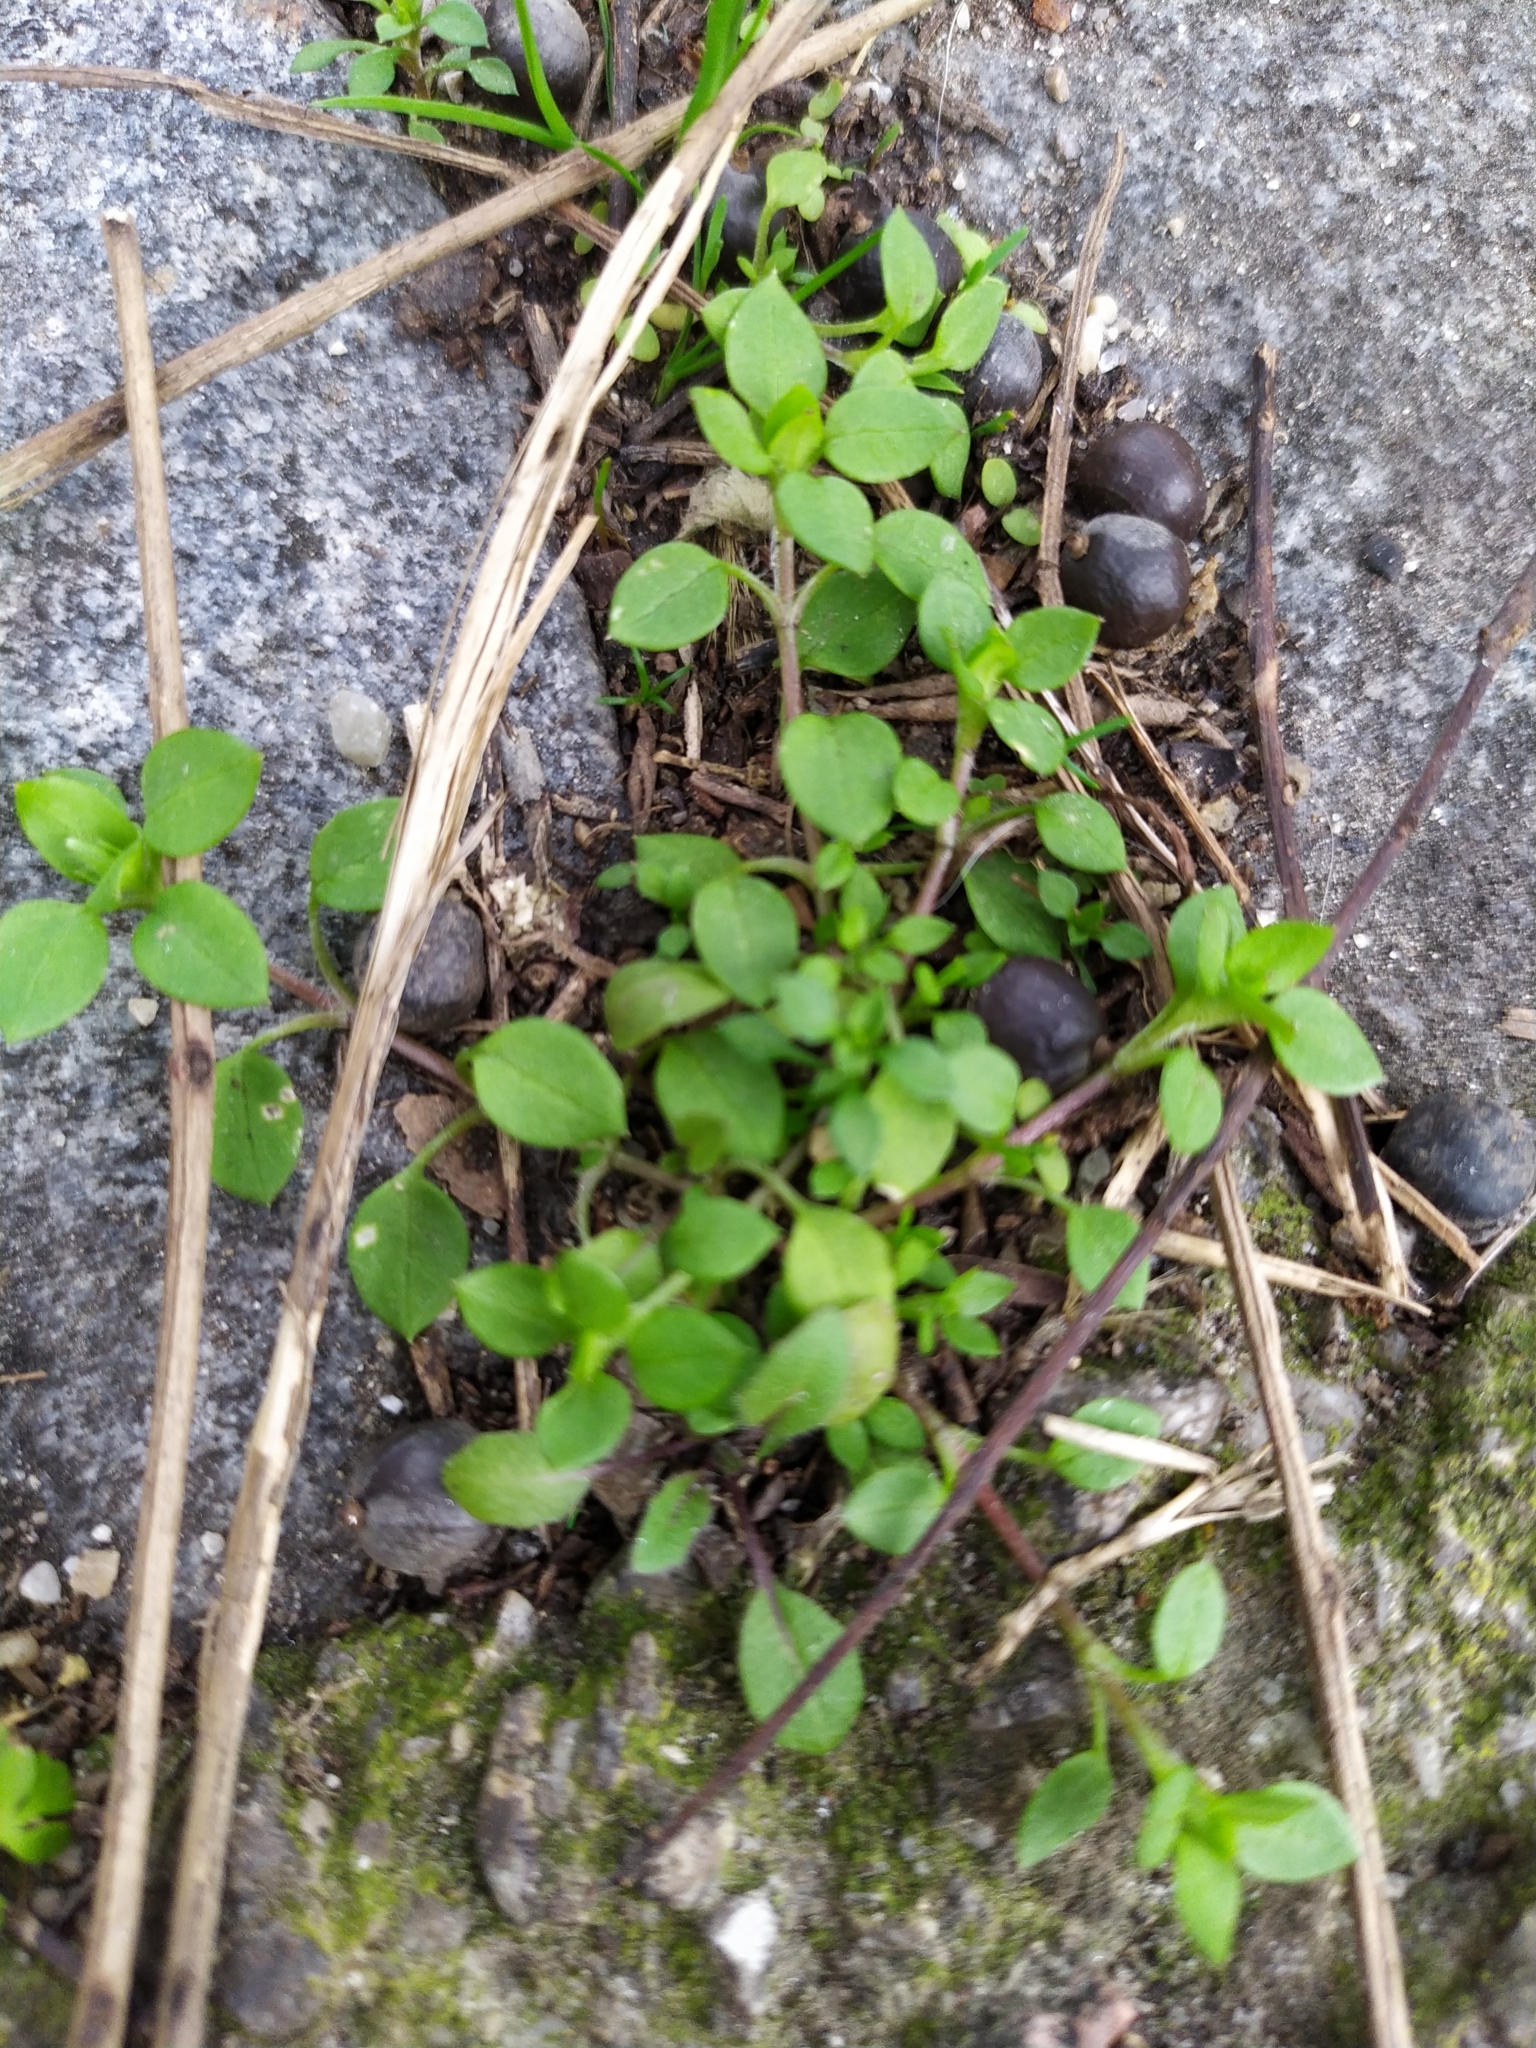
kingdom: Plantae
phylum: Tracheophyta
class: Magnoliopsida
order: Caryophyllales
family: Caryophyllaceae
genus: Stellaria
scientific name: Stellaria media
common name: Common chickweed
